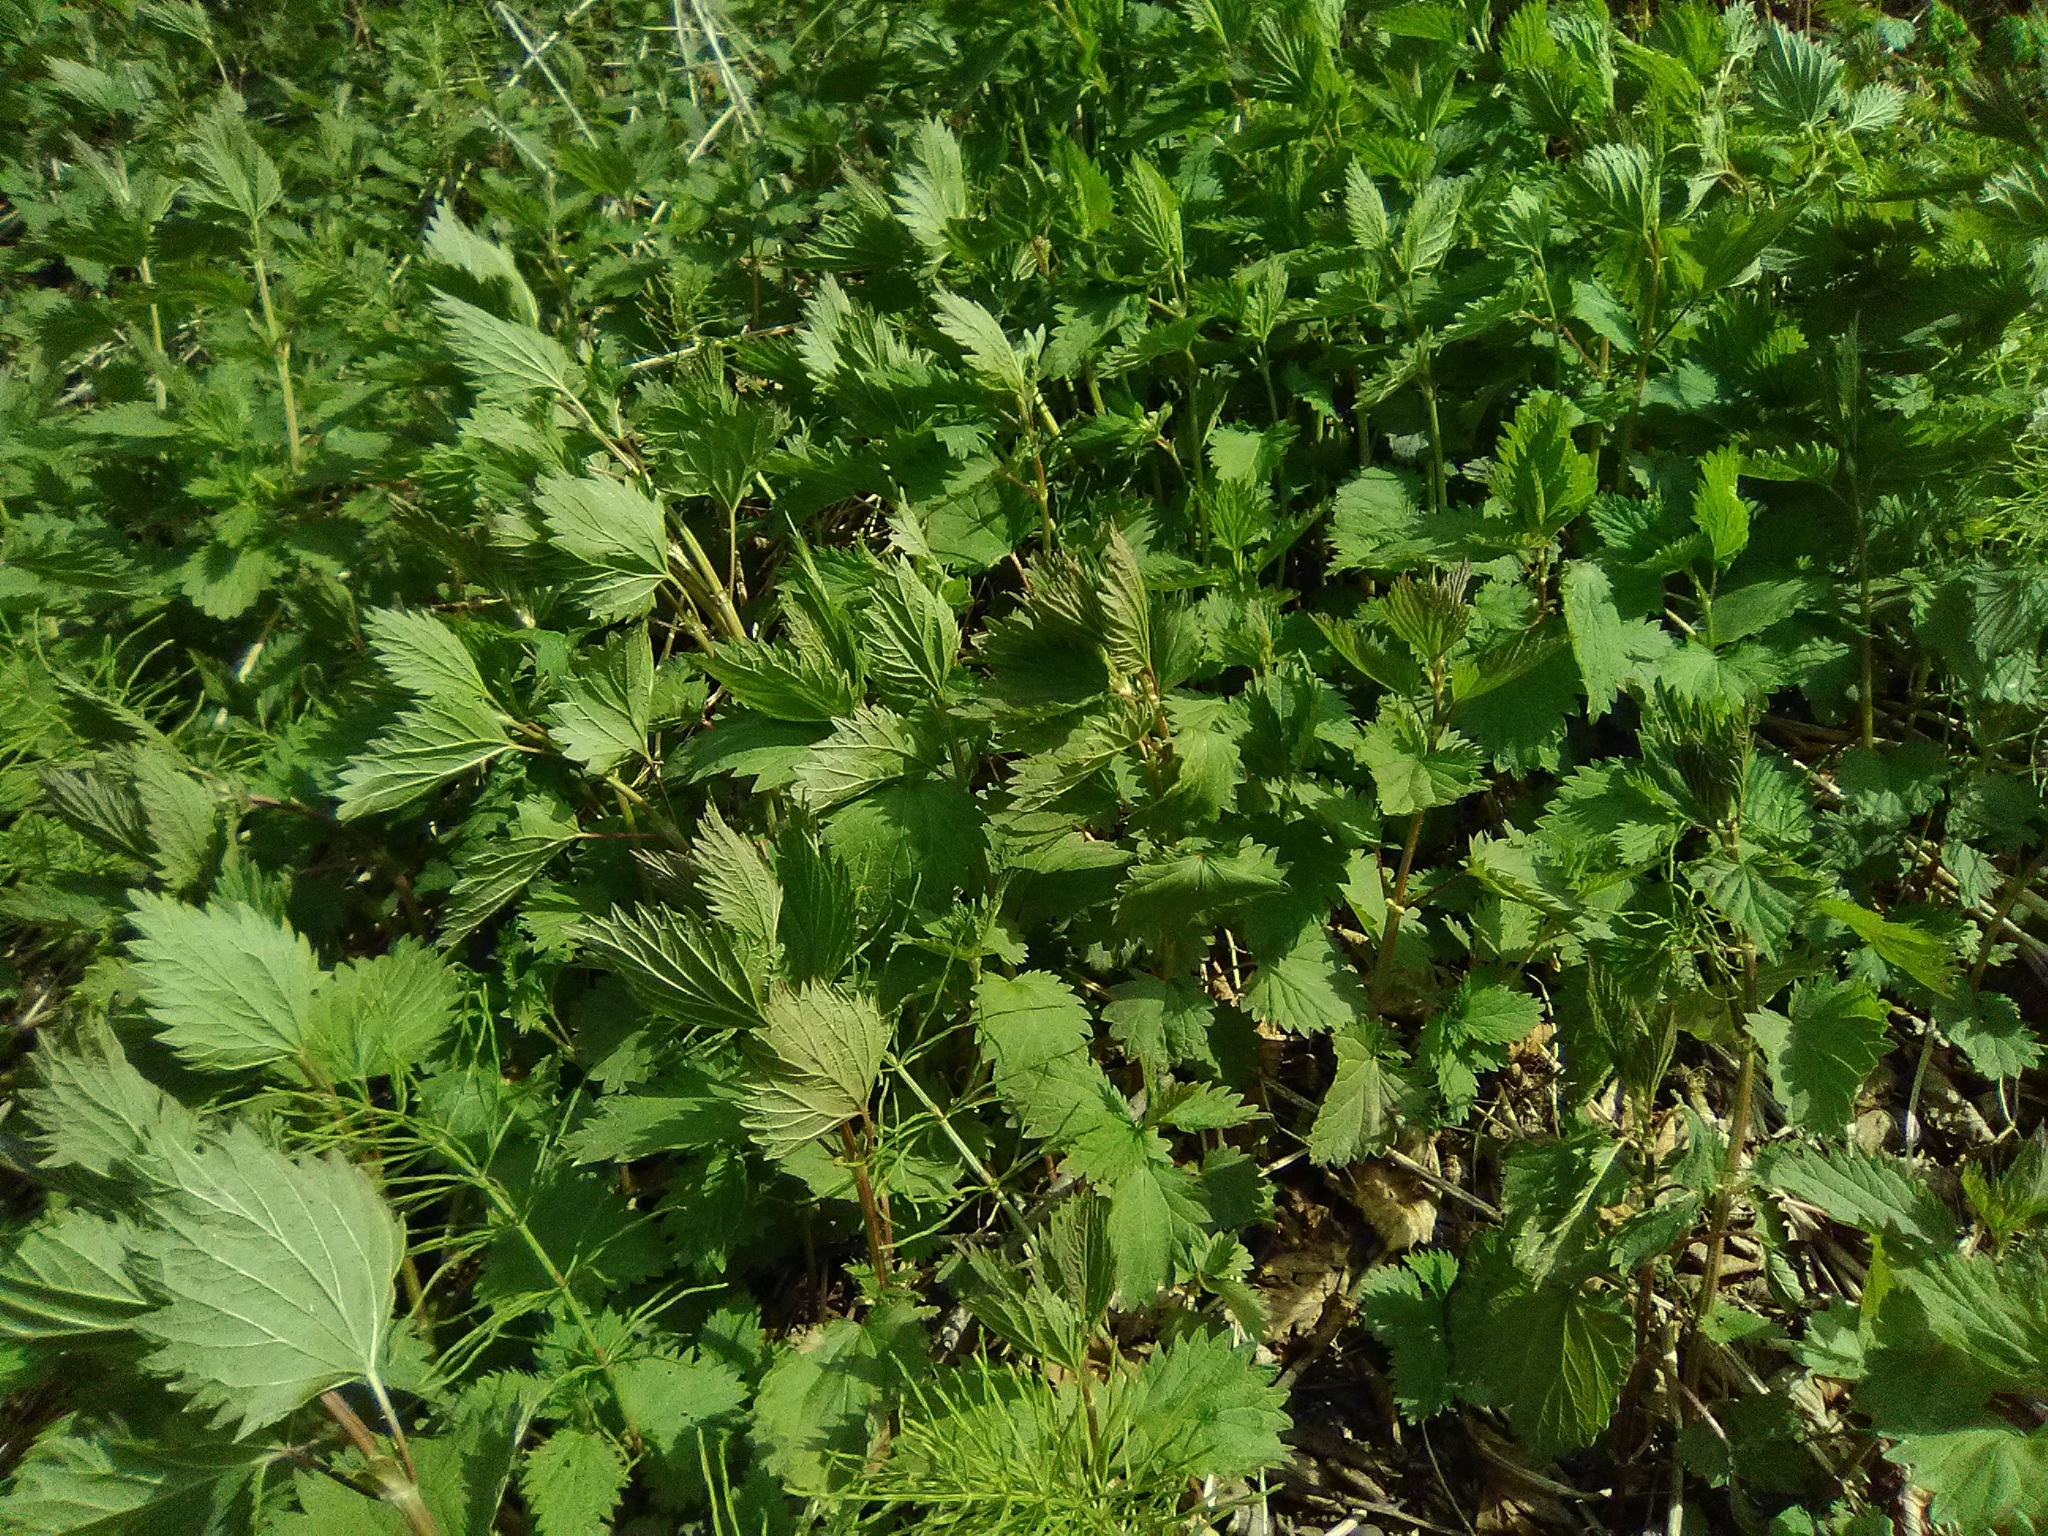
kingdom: Plantae
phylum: Tracheophyta
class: Magnoliopsida
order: Rosales
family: Urticaceae
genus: Urtica
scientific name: Urtica dioica
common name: Common nettle
